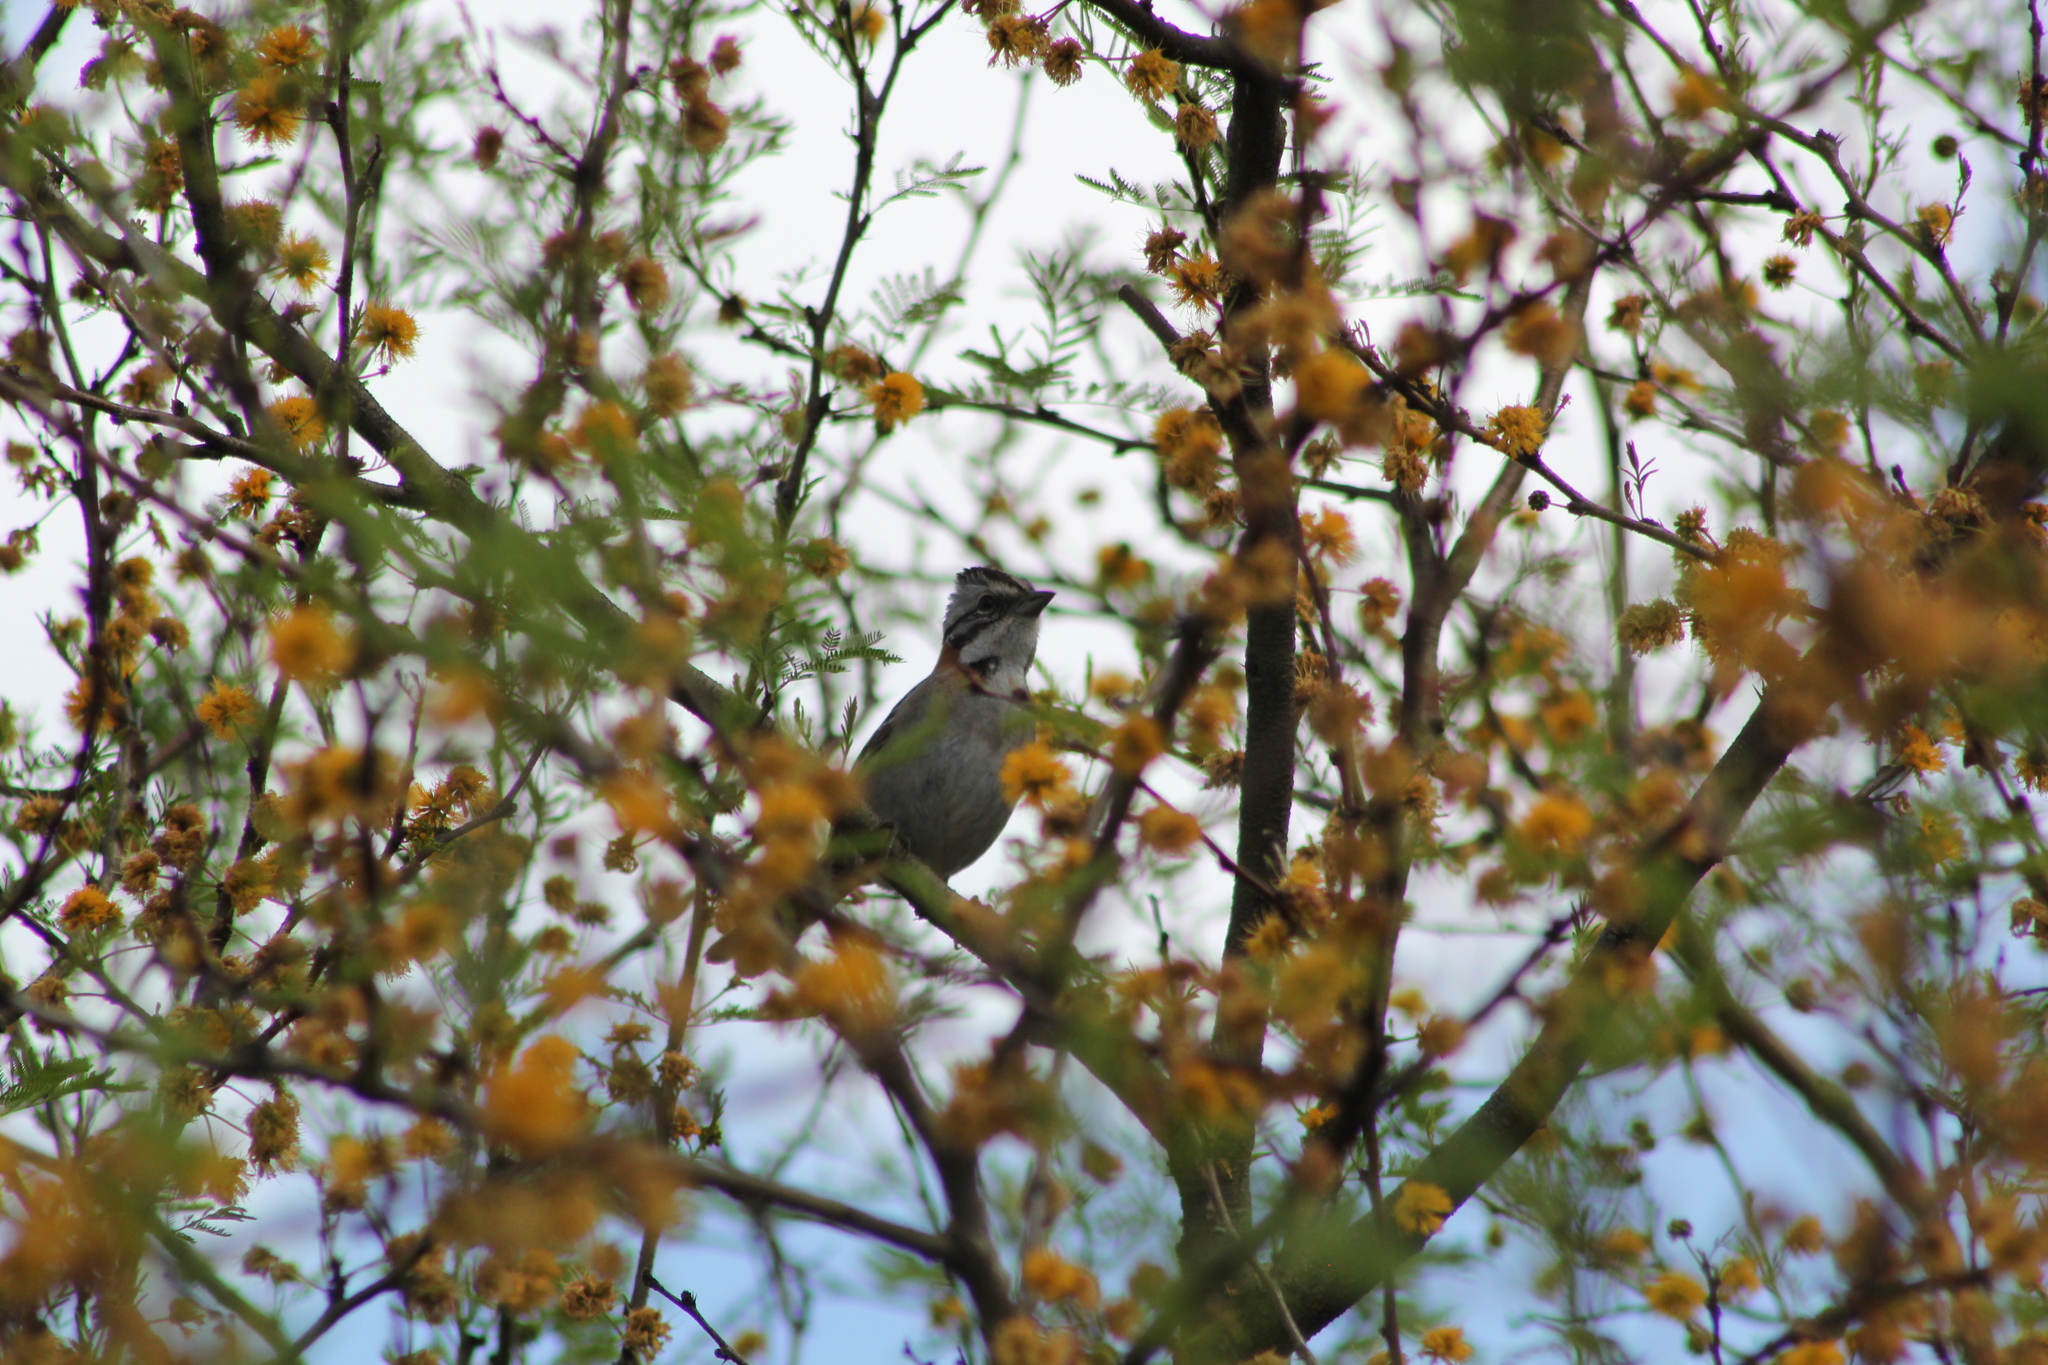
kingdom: Animalia
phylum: Chordata
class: Aves
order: Passeriformes
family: Passerellidae
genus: Zonotrichia
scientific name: Zonotrichia capensis
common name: Rufous-collared sparrow
